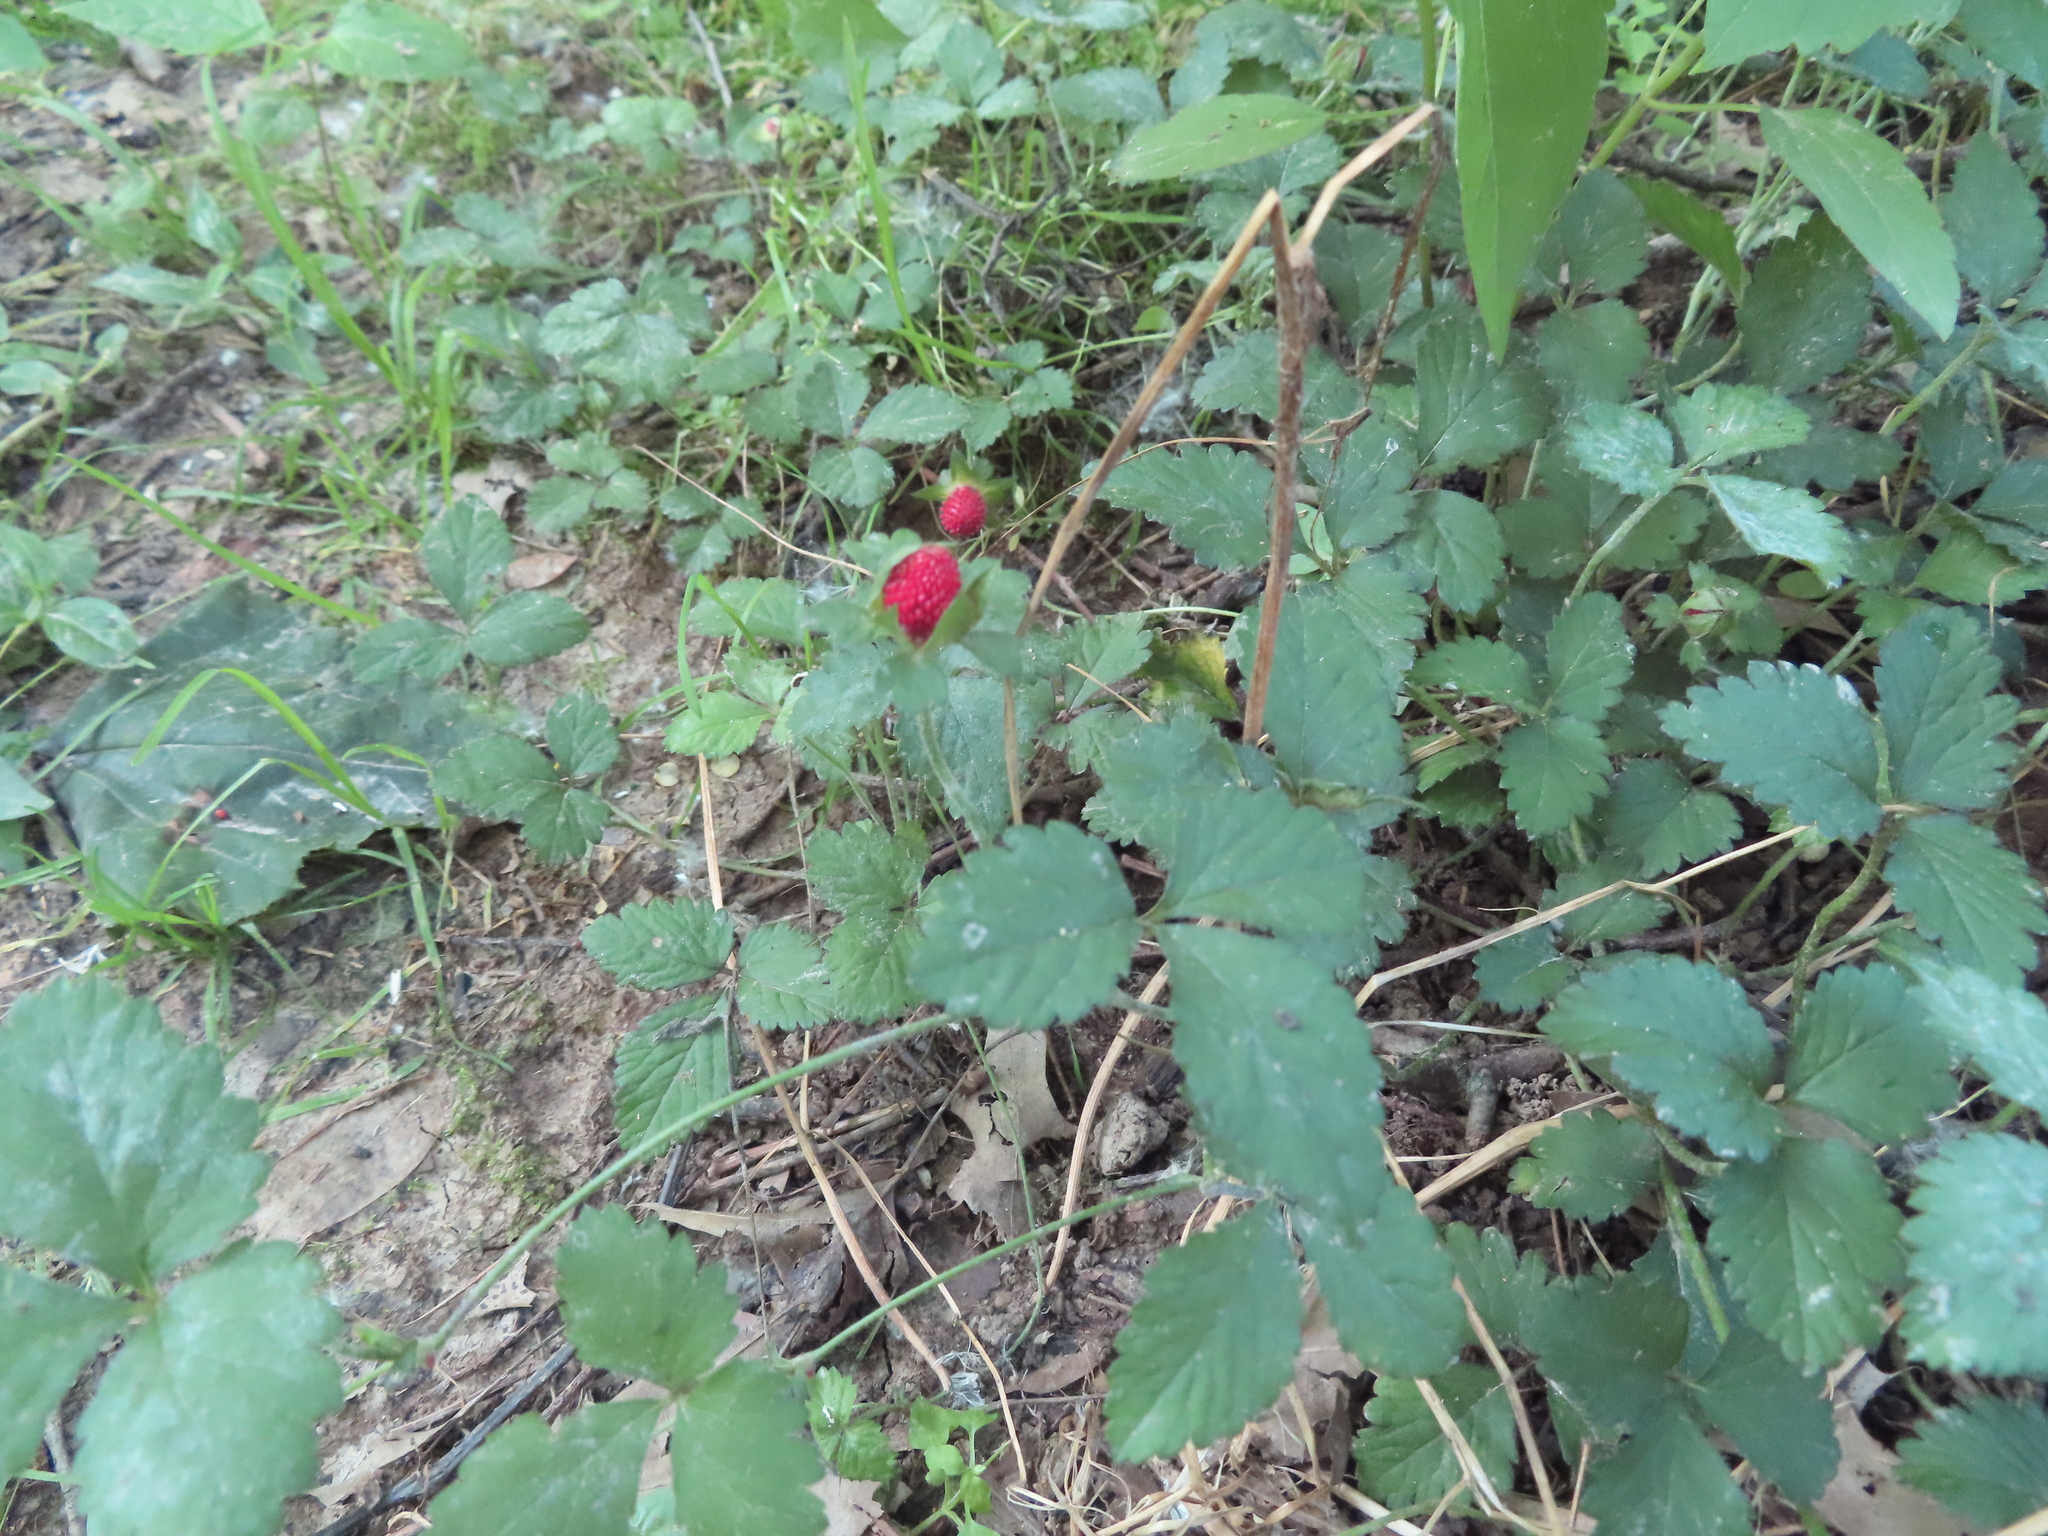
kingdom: Plantae
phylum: Tracheophyta
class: Magnoliopsida
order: Rosales
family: Rosaceae
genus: Potentilla
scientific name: Potentilla indica
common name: Yellow-flowered strawberry
